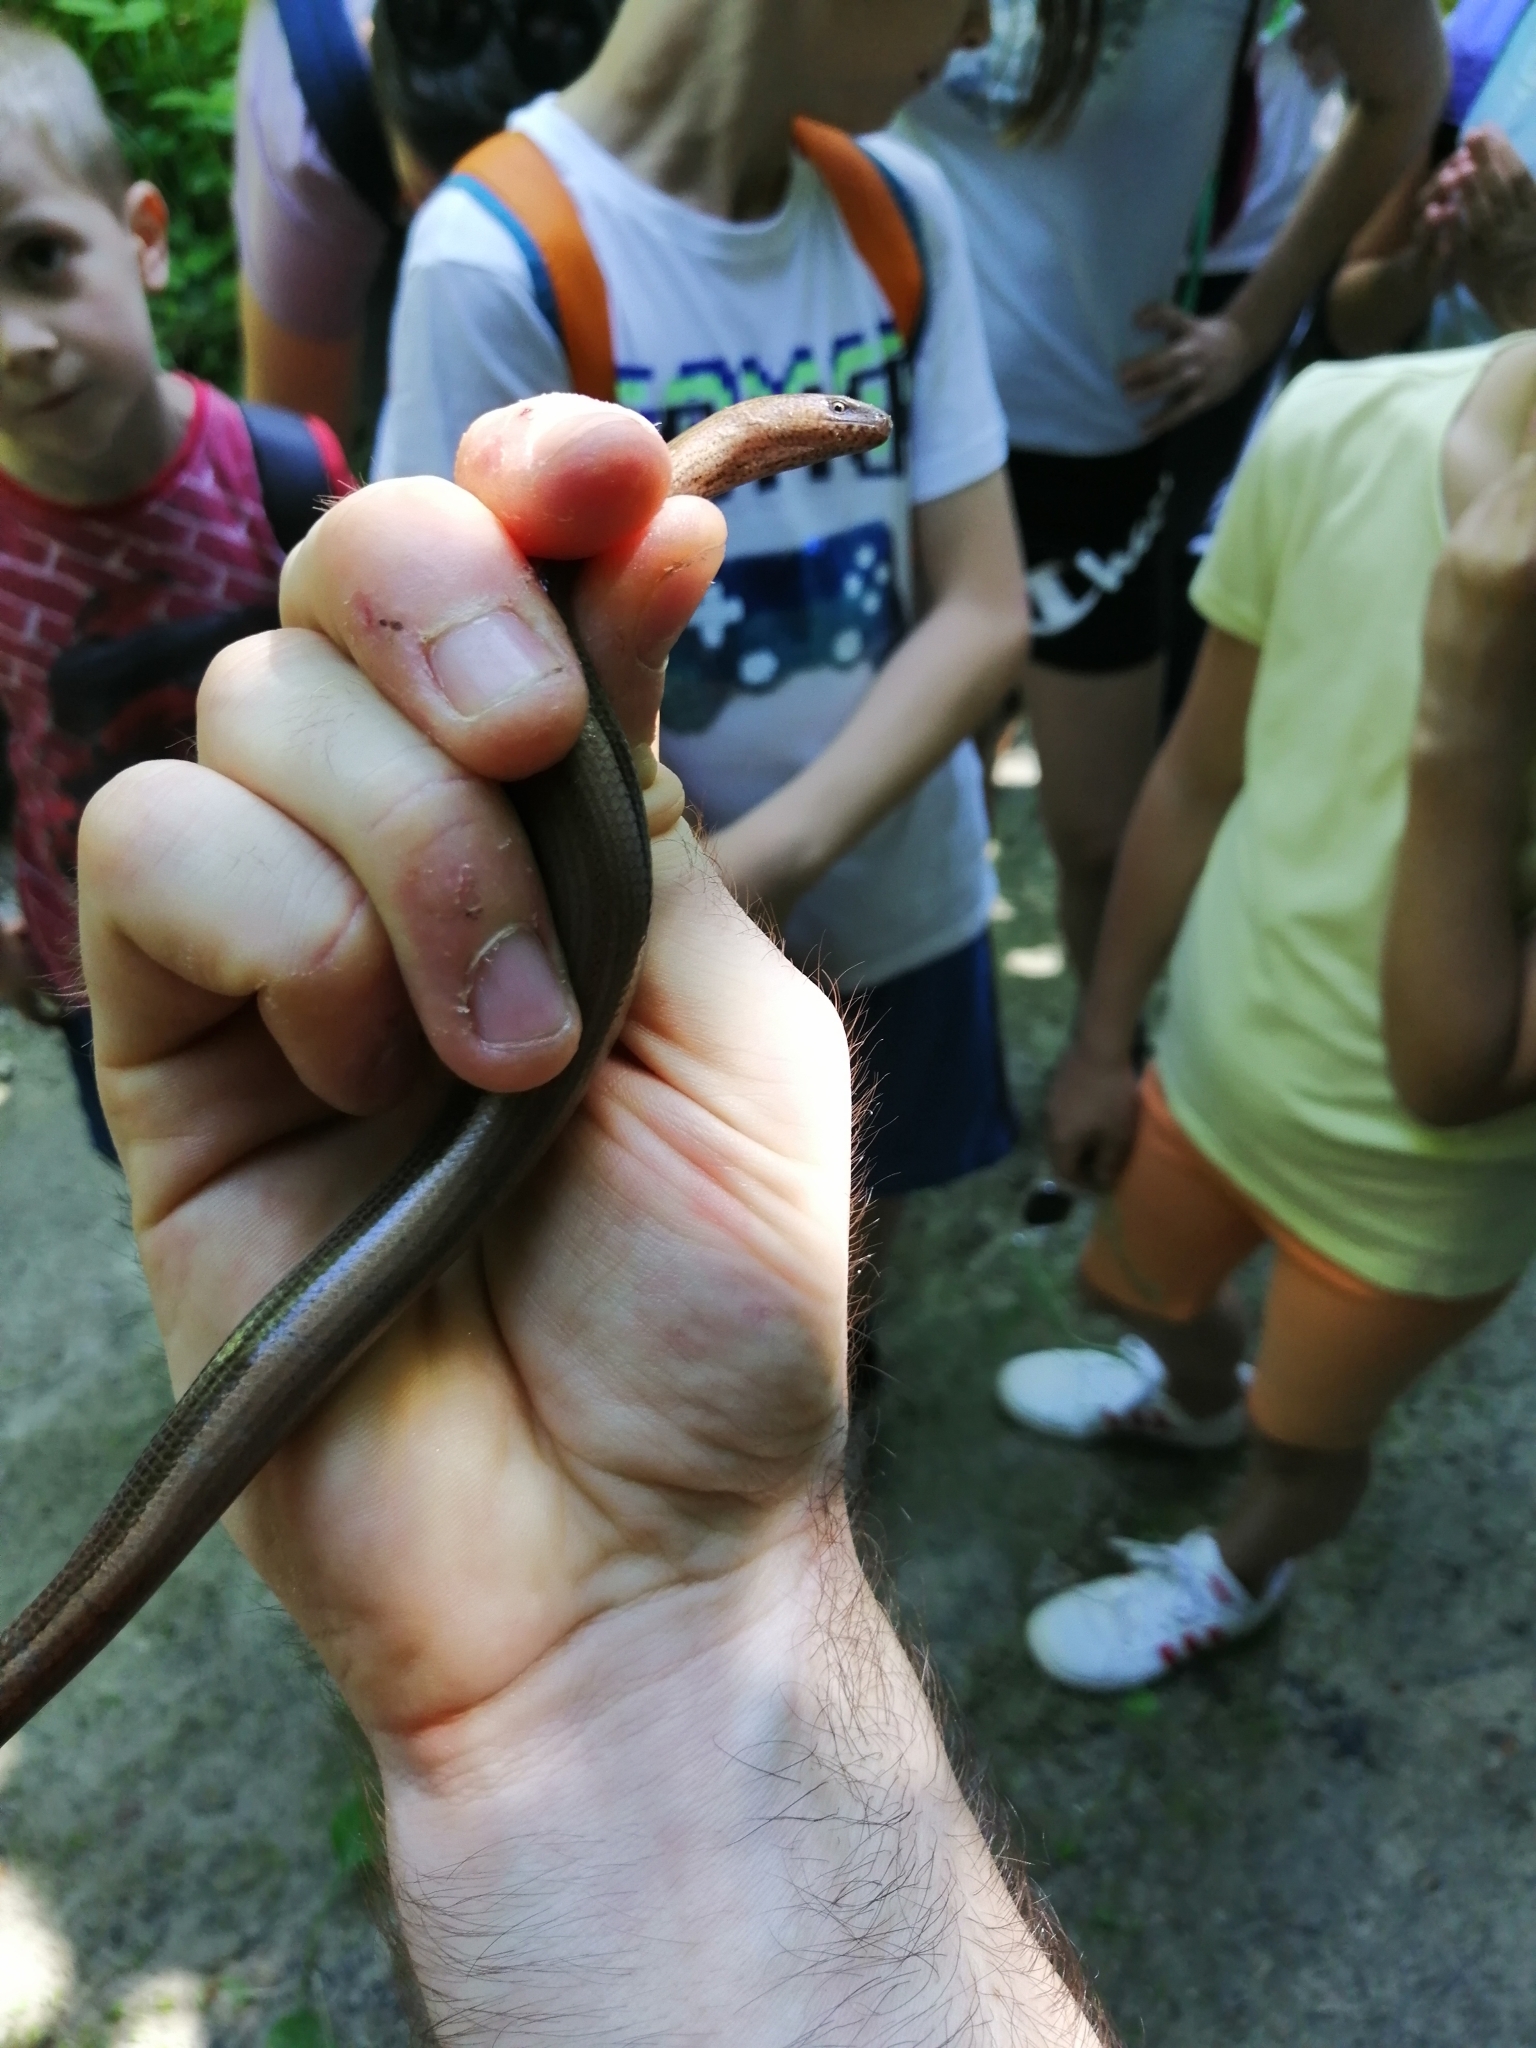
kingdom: Animalia
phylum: Chordata
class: Squamata
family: Anguidae
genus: Anguis
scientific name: Anguis veronensis
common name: Italian slow worm
